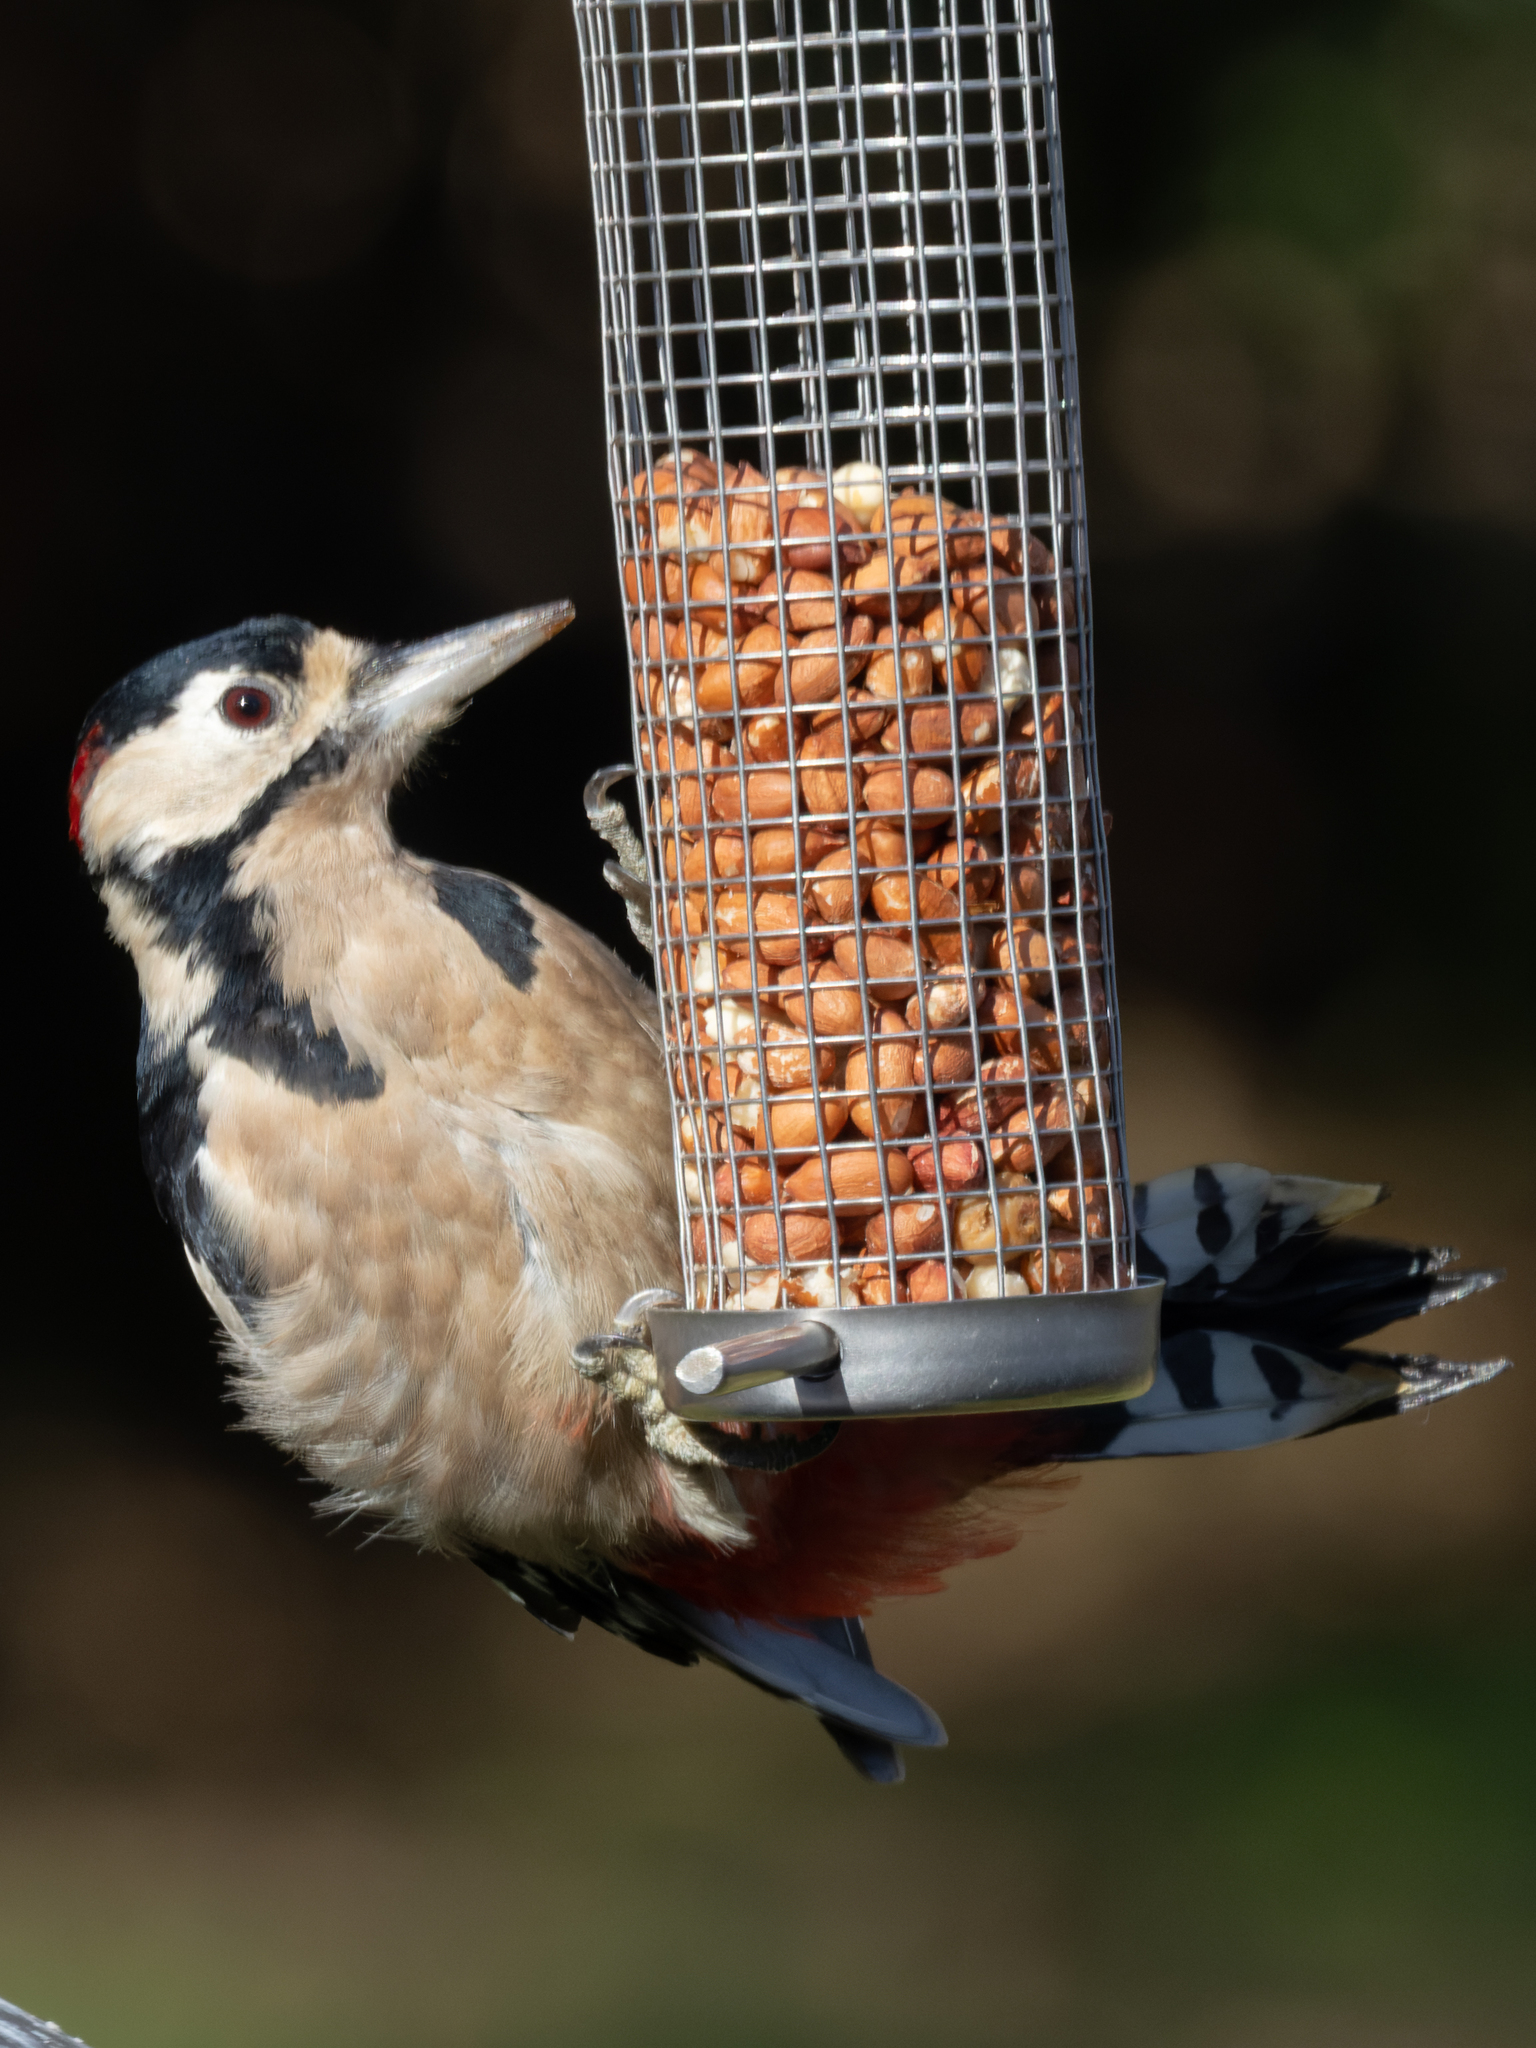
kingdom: Animalia
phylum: Chordata
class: Aves
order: Piciformes
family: Picidae
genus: Dendrocopos
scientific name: Dendrocopos major
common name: Great spotted woodpecker
